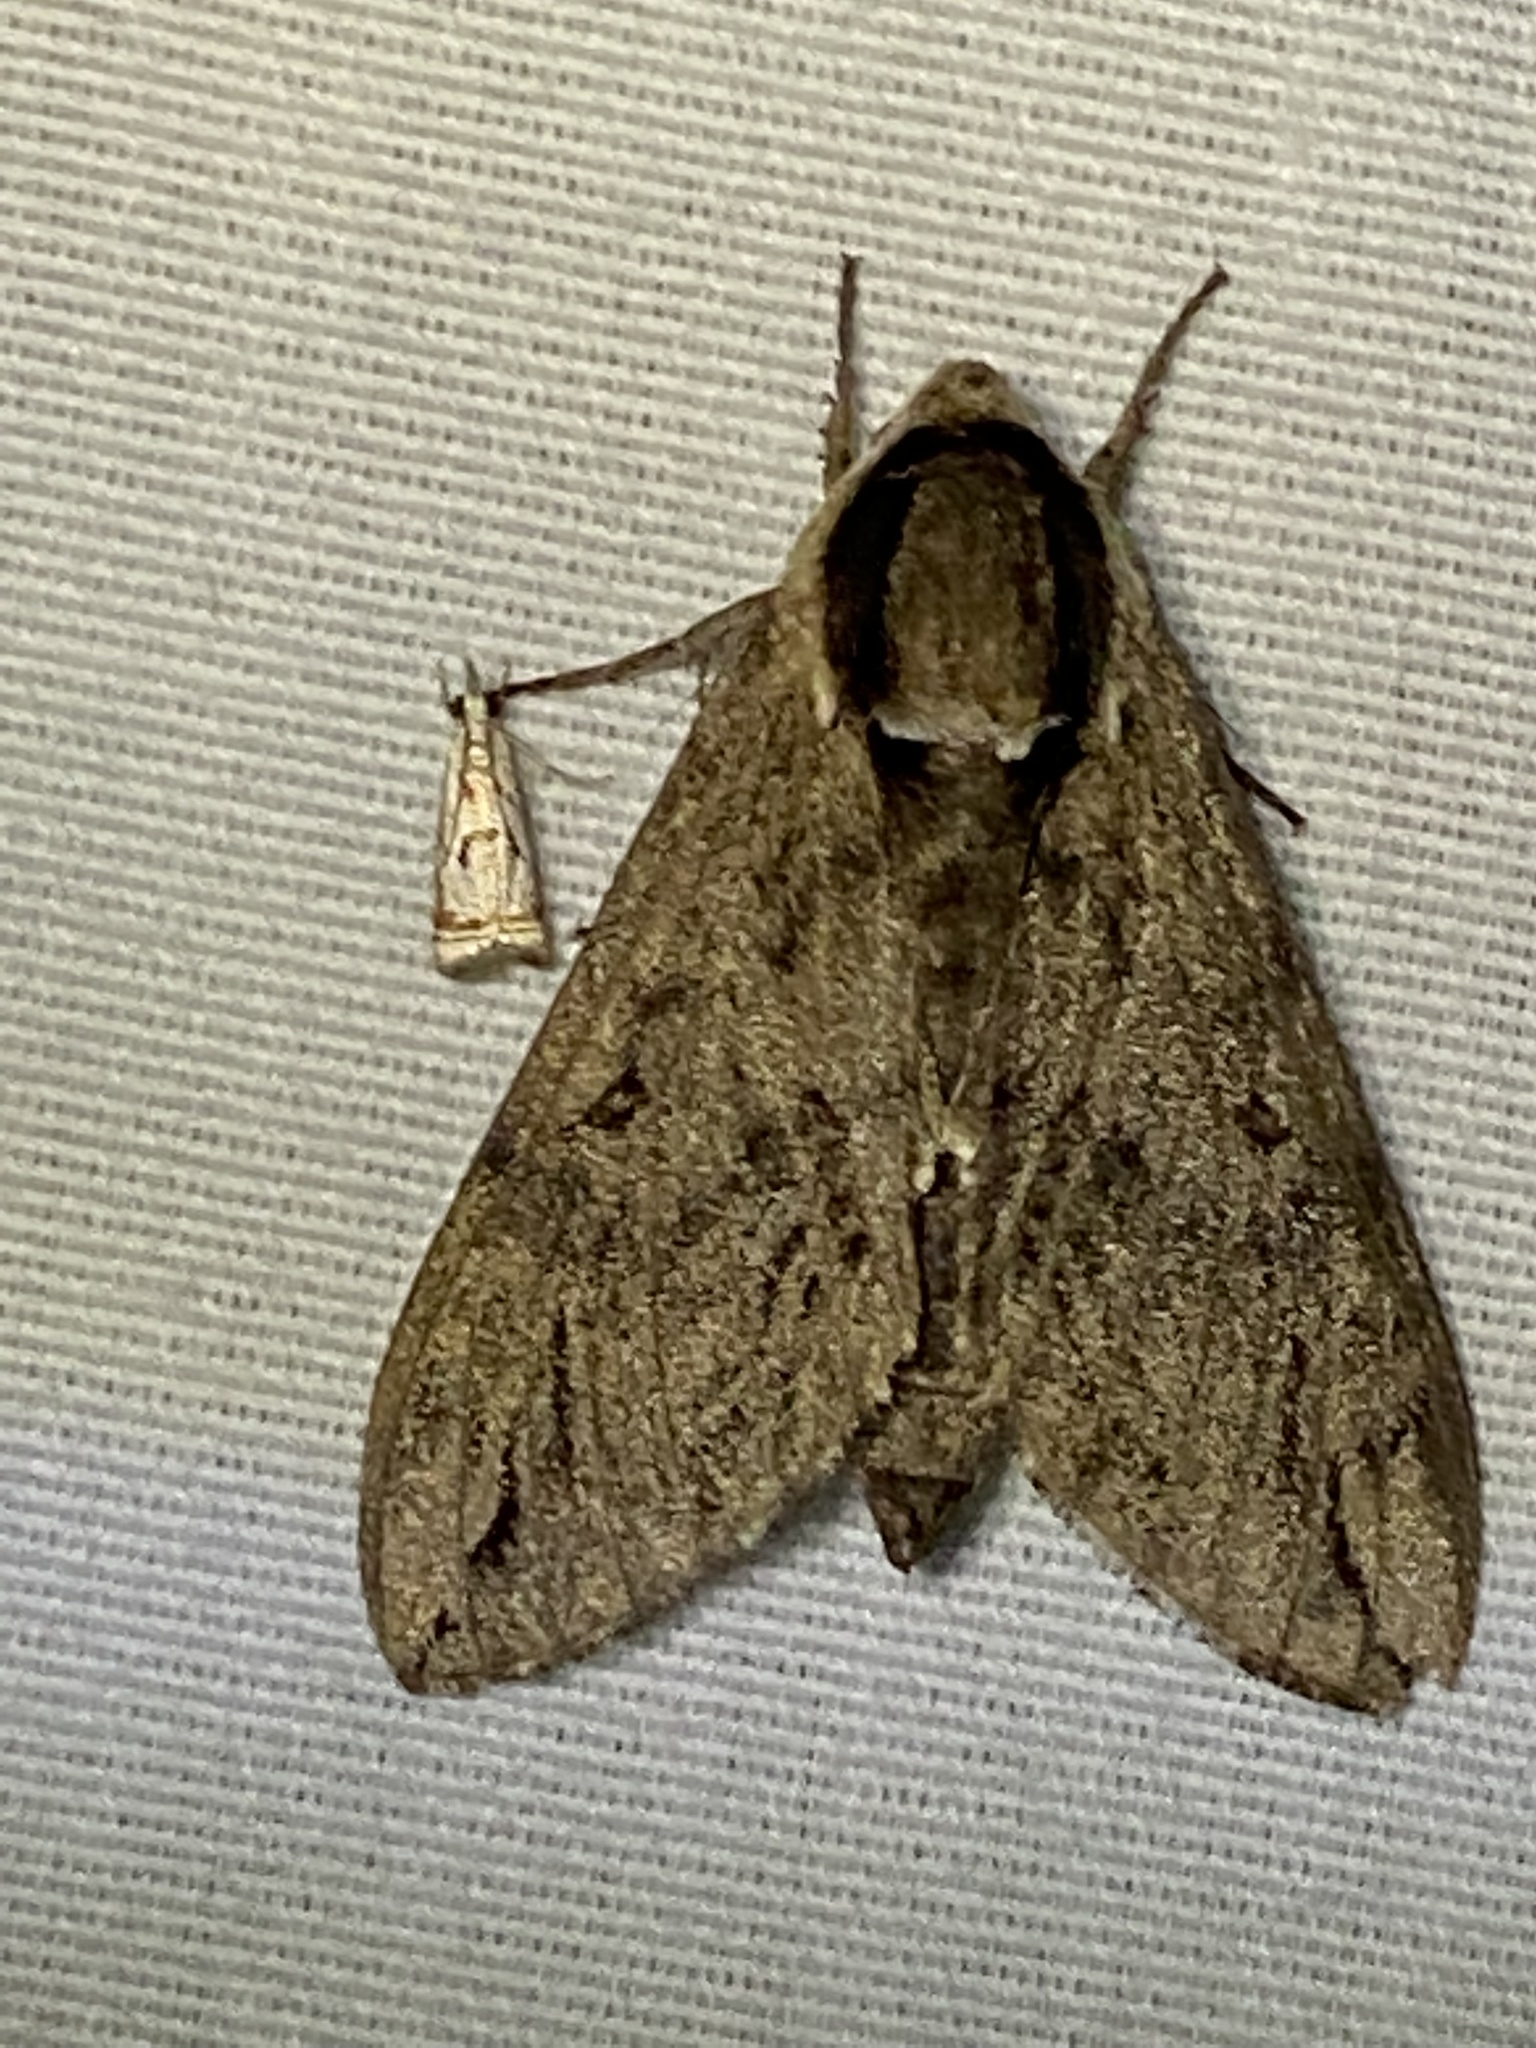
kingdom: Animalia
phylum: Arthropoda
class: Insecta
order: Lepidoptera
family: Sphingidae
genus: Ceratomia
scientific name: Ceratomia catalpae
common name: Catalpa hornworm
